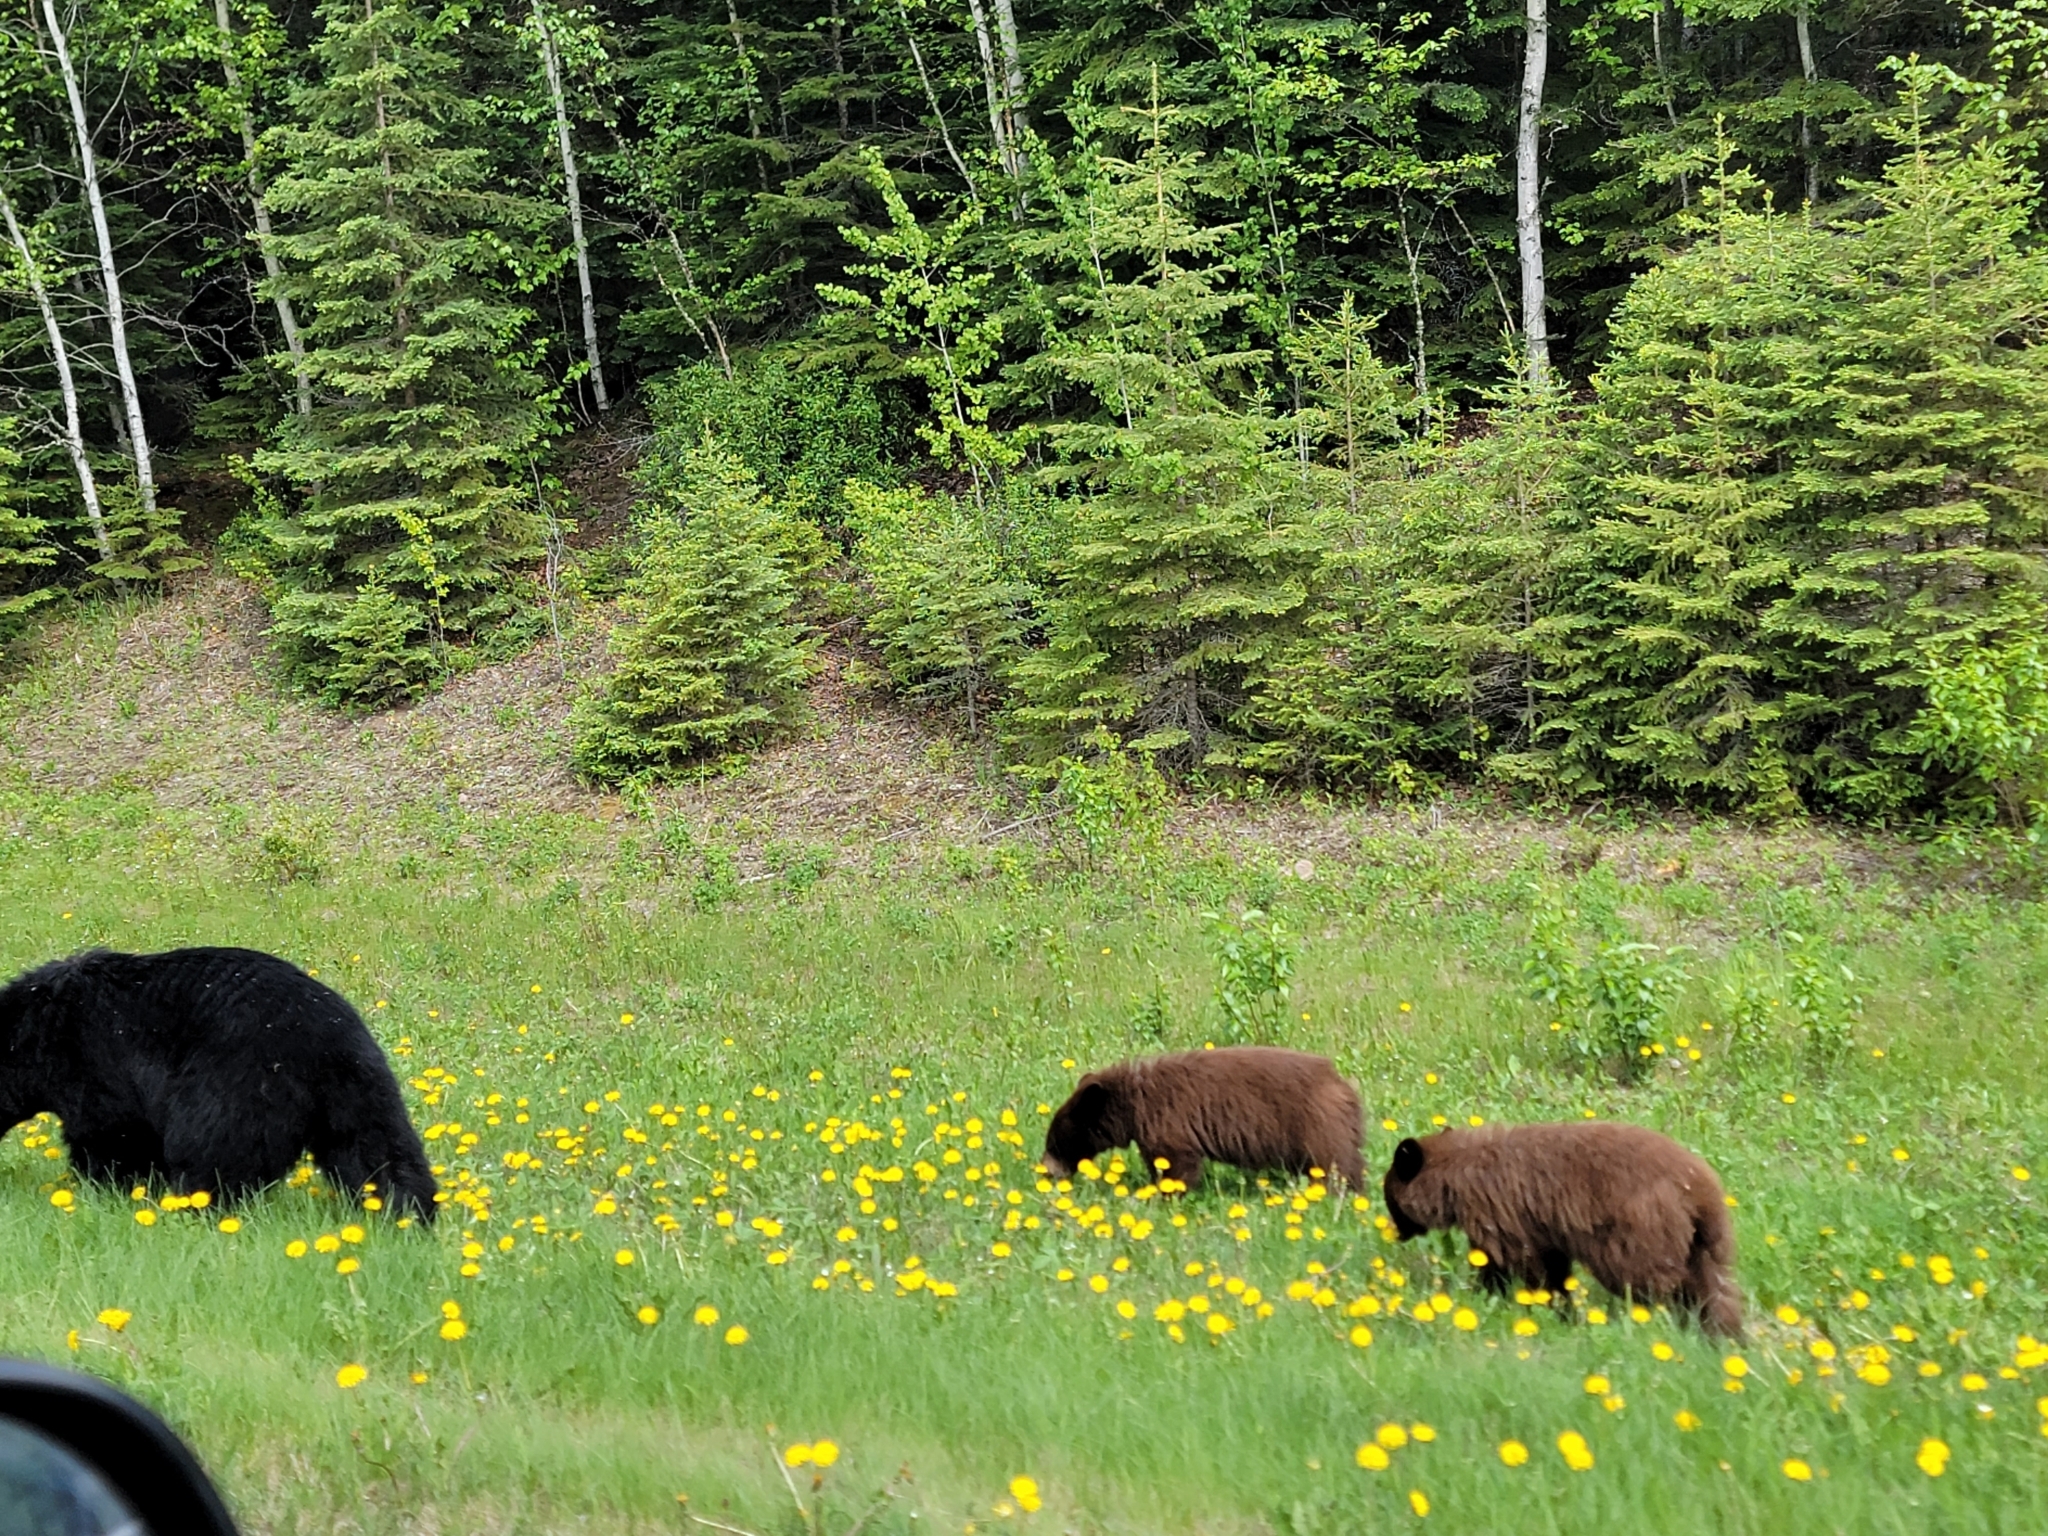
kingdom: Animalia
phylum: Chordata
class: Mammalia
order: Carnivora
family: Ursidae
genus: Ursus
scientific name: Ursus americanus
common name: American black bear
